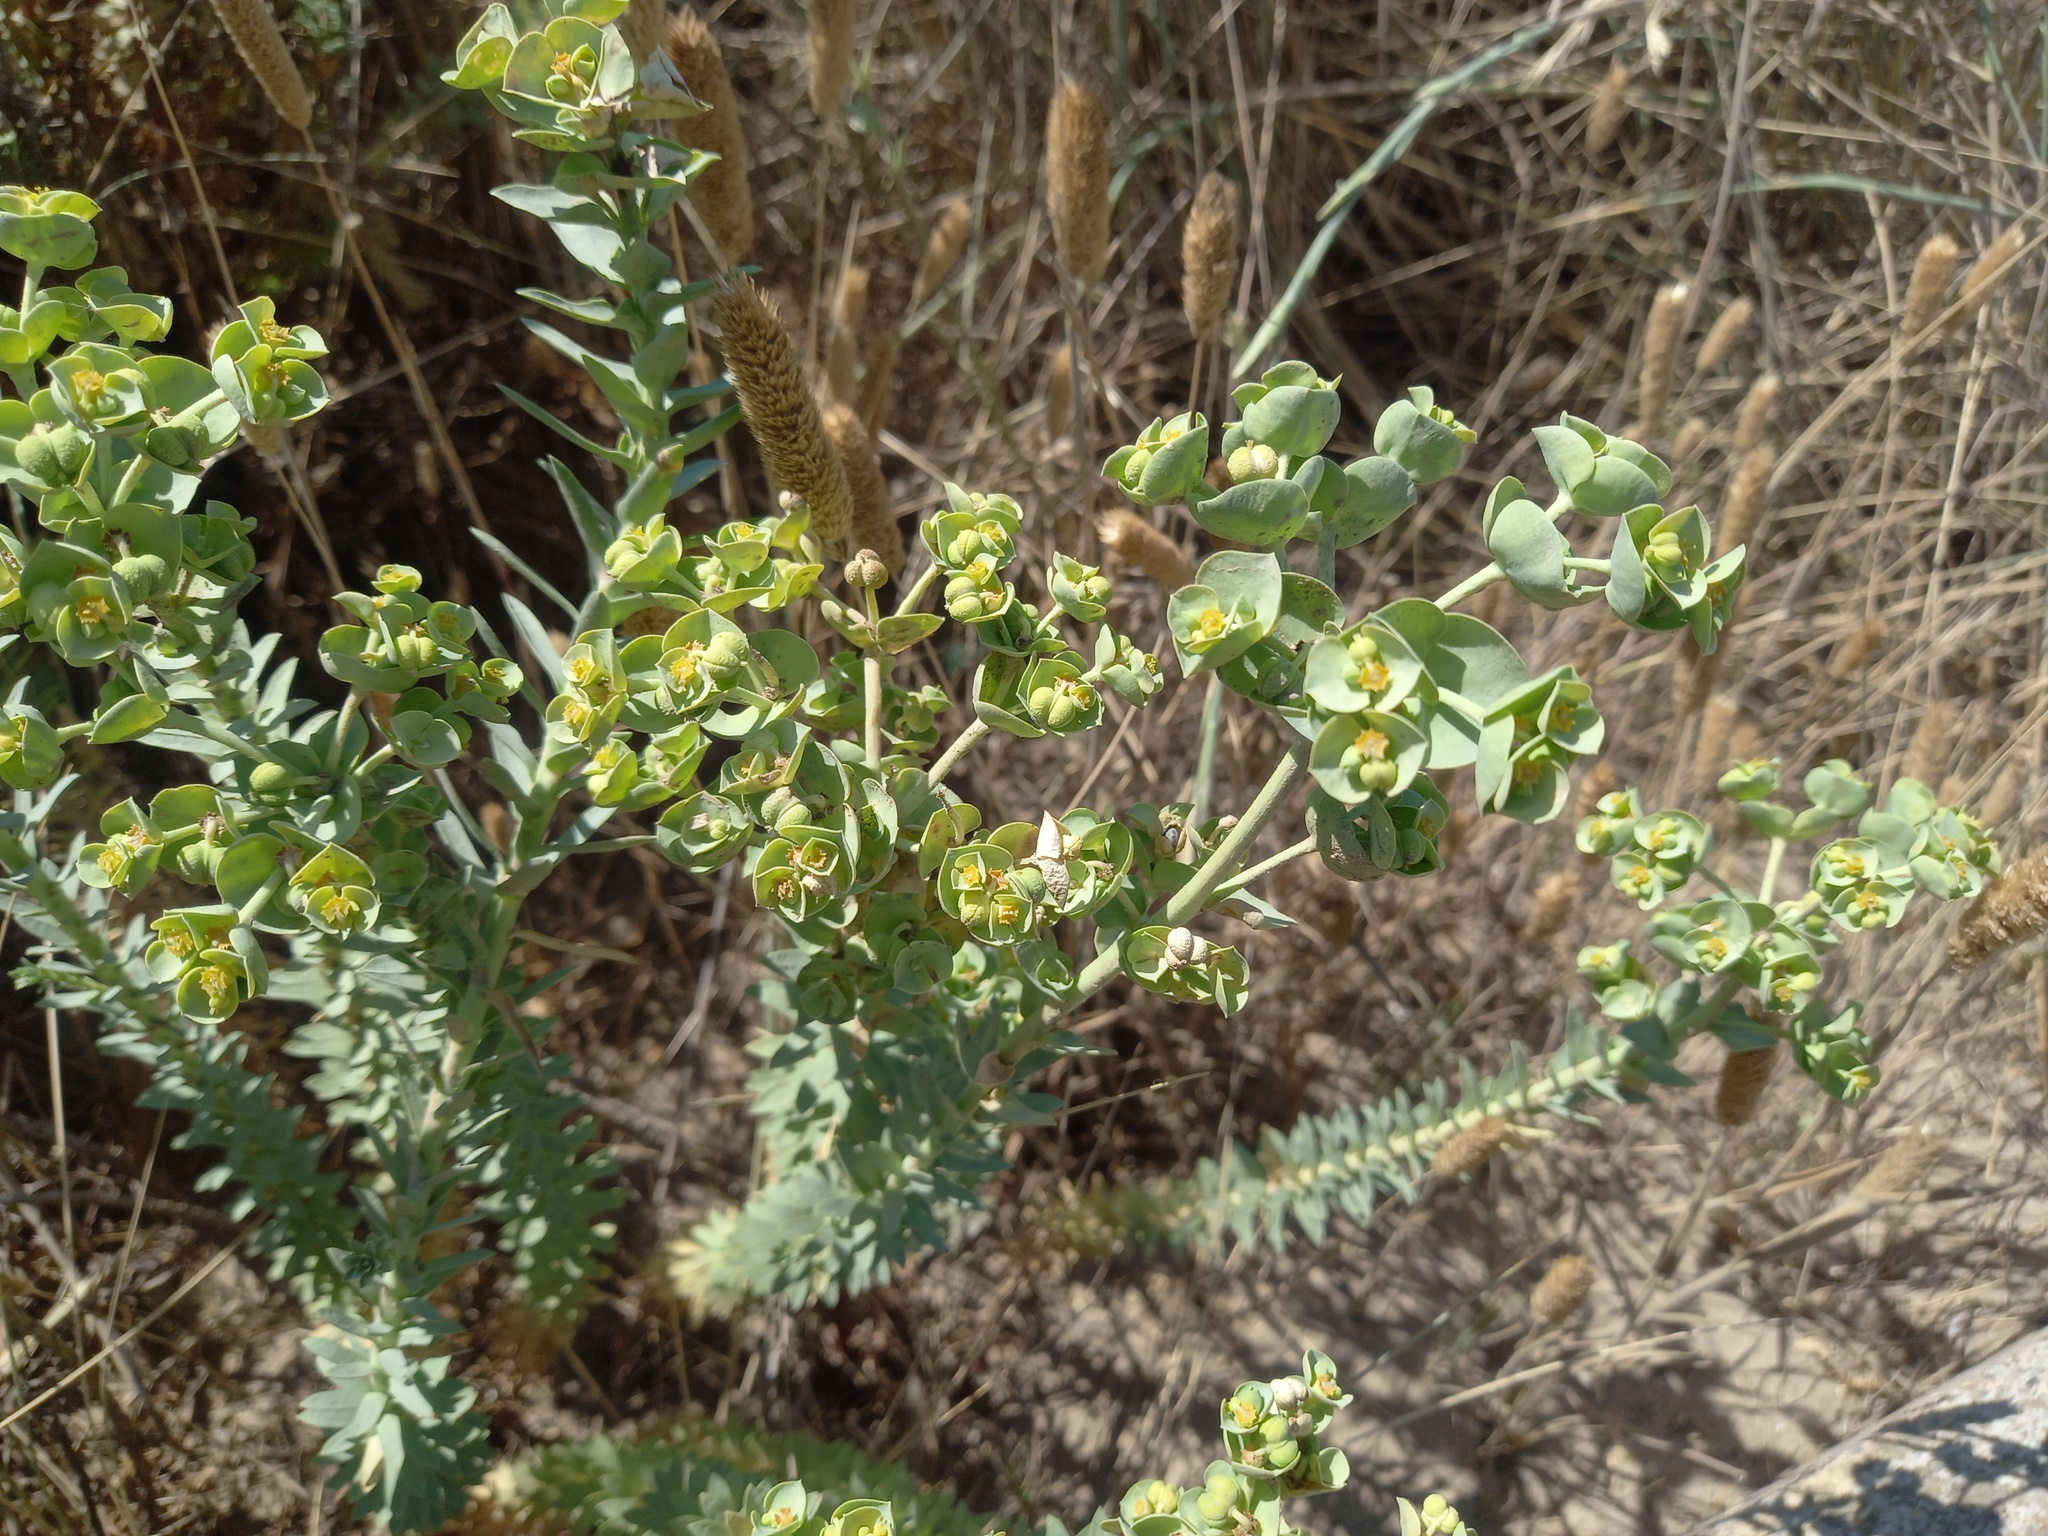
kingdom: Plantae
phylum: Tracheophyta
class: Magnoliopsida
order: Malpighiales
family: Euphorbiaceae
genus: Euphorbia
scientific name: Euphorbia paralias
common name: Sea spurge
